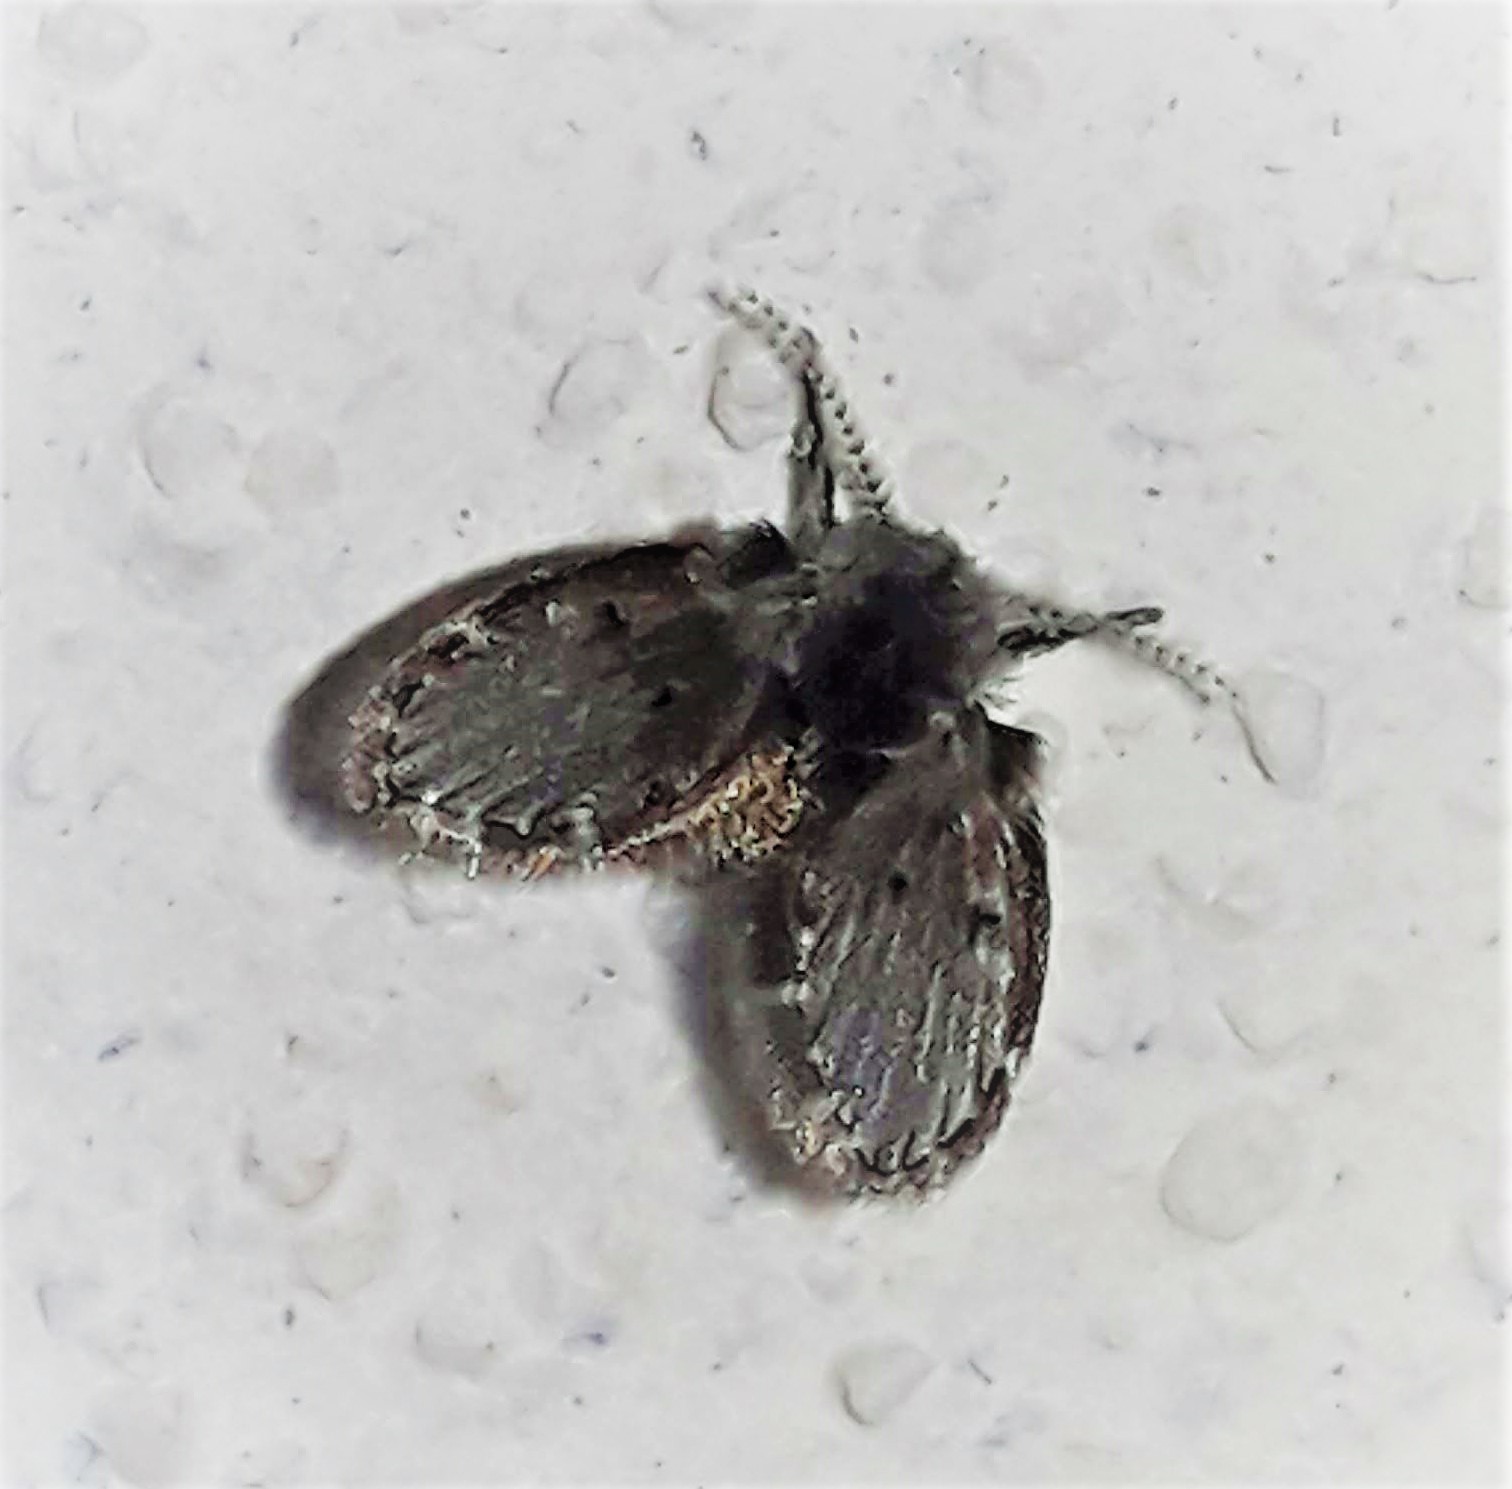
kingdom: Animalia
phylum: Arthropoda
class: Insecta
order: Diptera
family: Psychodidae
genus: Clogmia
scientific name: Clogmia albipunctatus
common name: White-spotted moth fly
